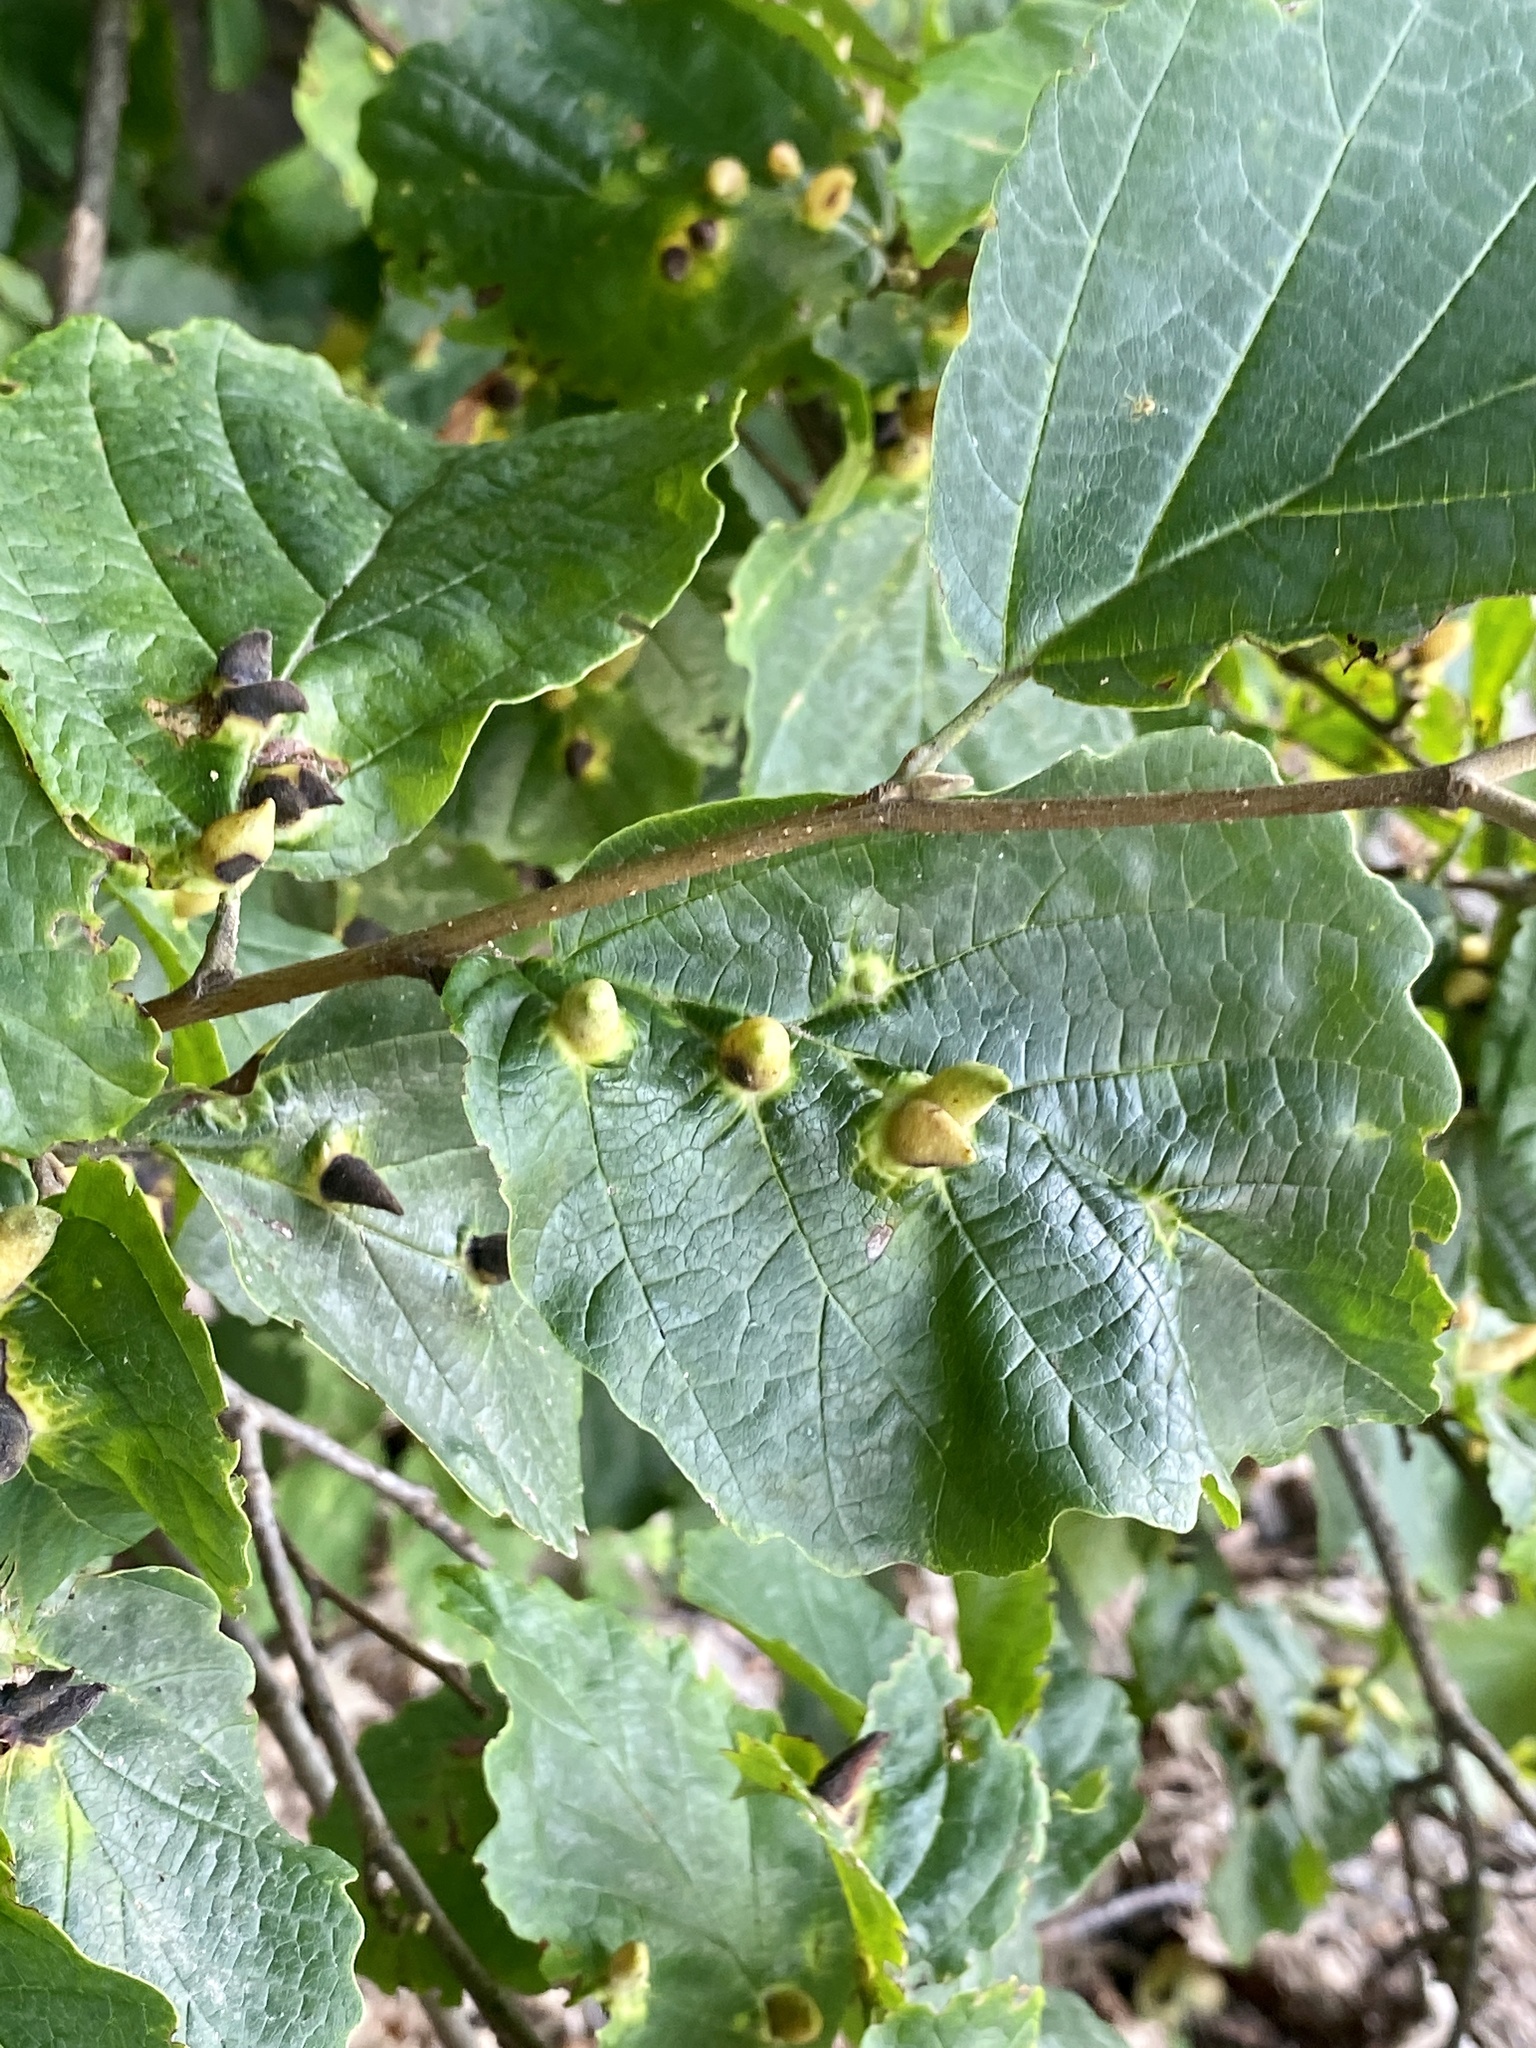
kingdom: Animalia
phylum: Arthropoda
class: Insecta
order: Hemiptera
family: Aphididae
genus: Hormaphis
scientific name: Hormaphis hamamelidis
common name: Witch-hazel cone gall aphid
